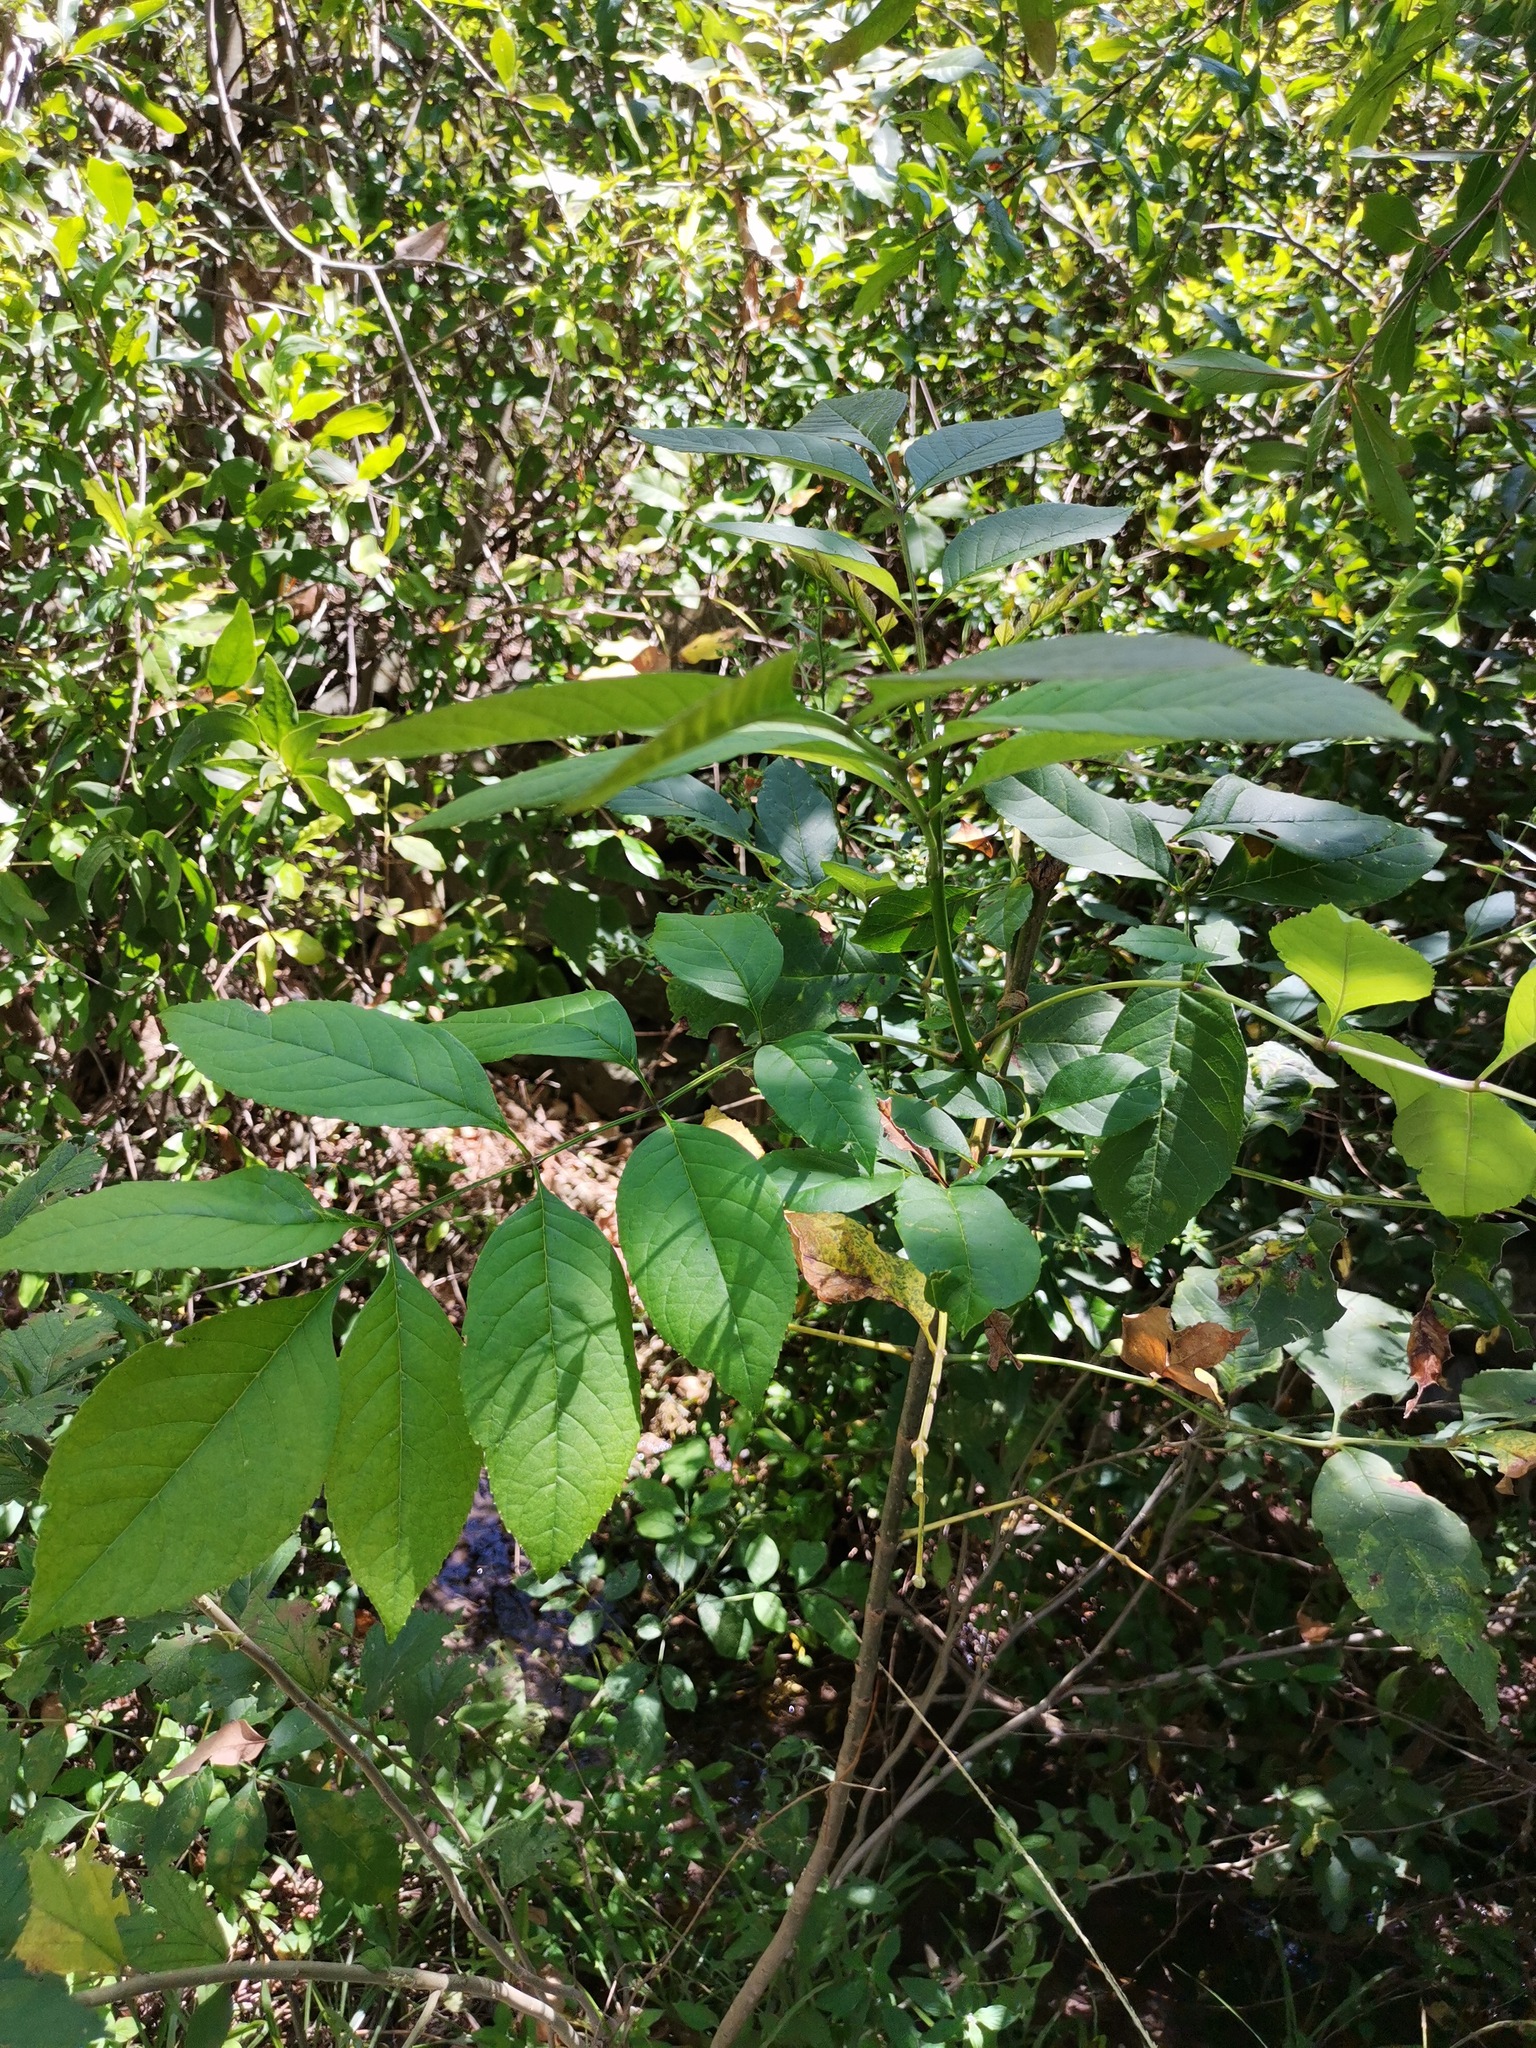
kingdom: Plantae
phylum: Tracheophyta
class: Magnoliopsida
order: Lamiales
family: Oleaceae
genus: Fraxinus
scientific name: Fraxinus uhdei
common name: Shamel ash
